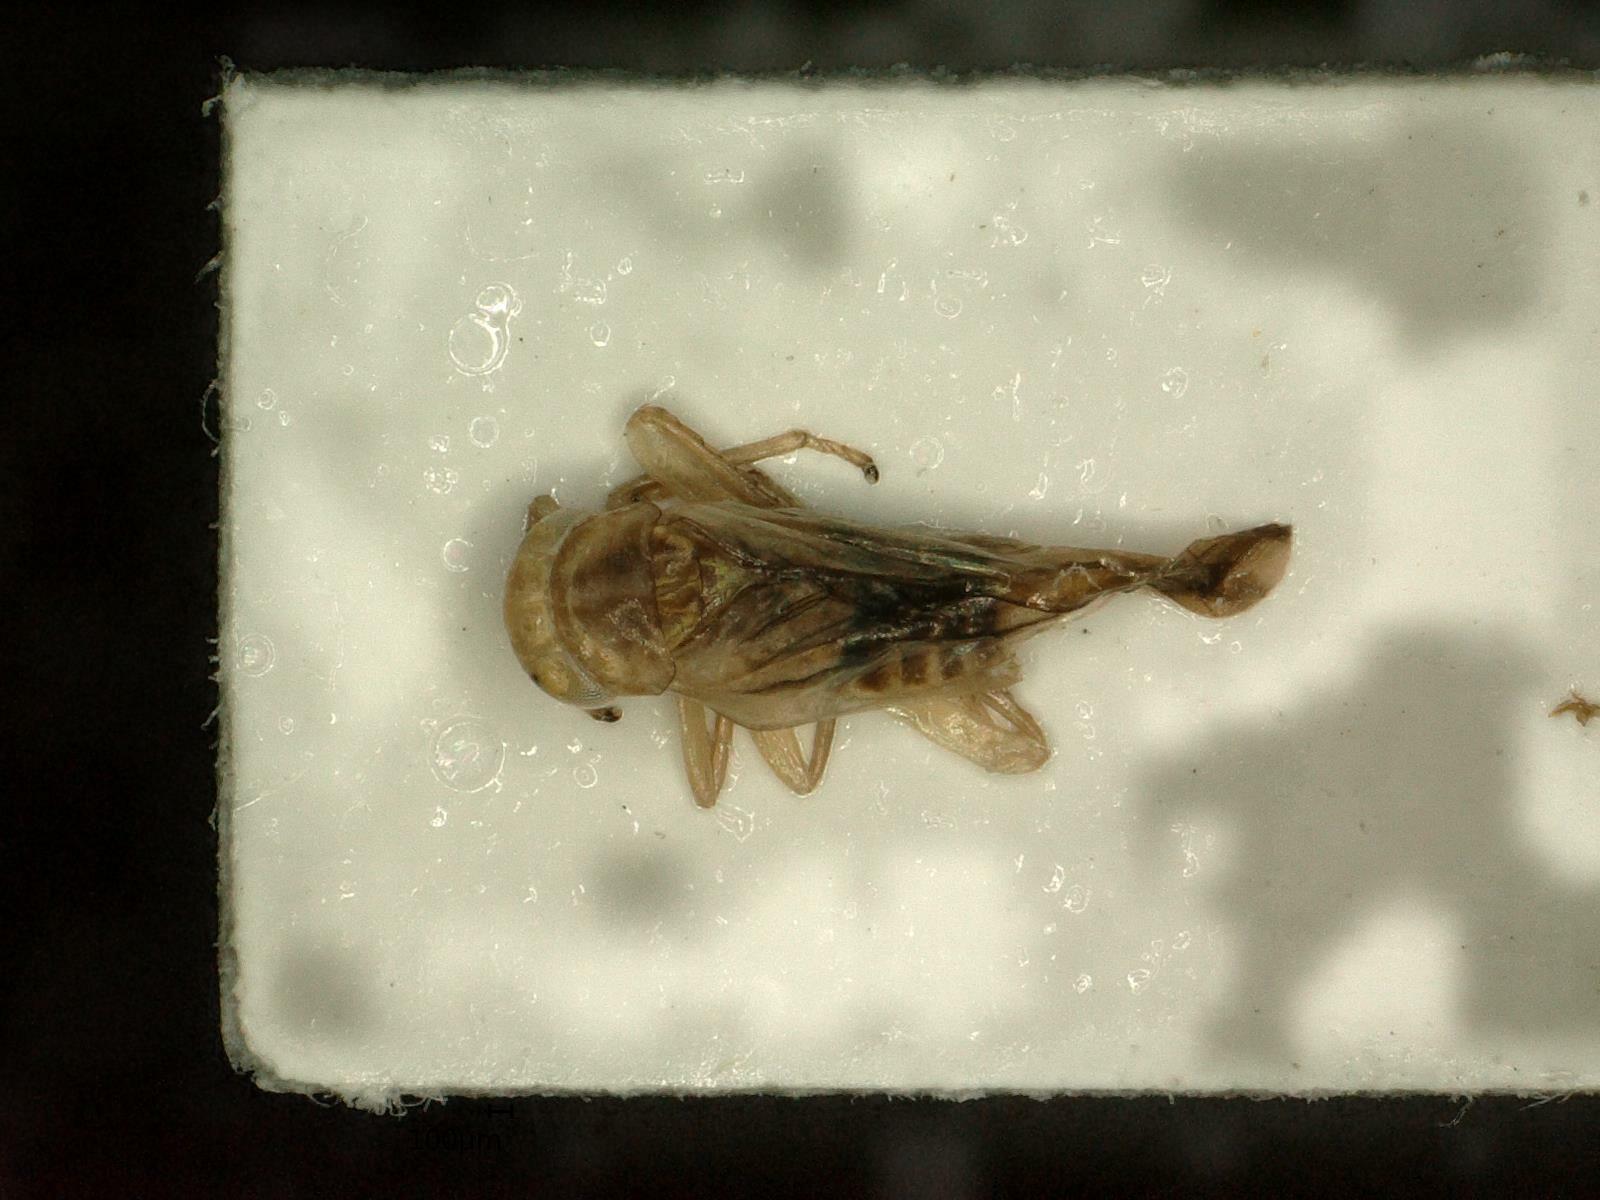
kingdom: Animalia
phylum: Arthropoda
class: Insecta
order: Hemiptera
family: Cicadellidae
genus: Kybos
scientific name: Kybos virgator
